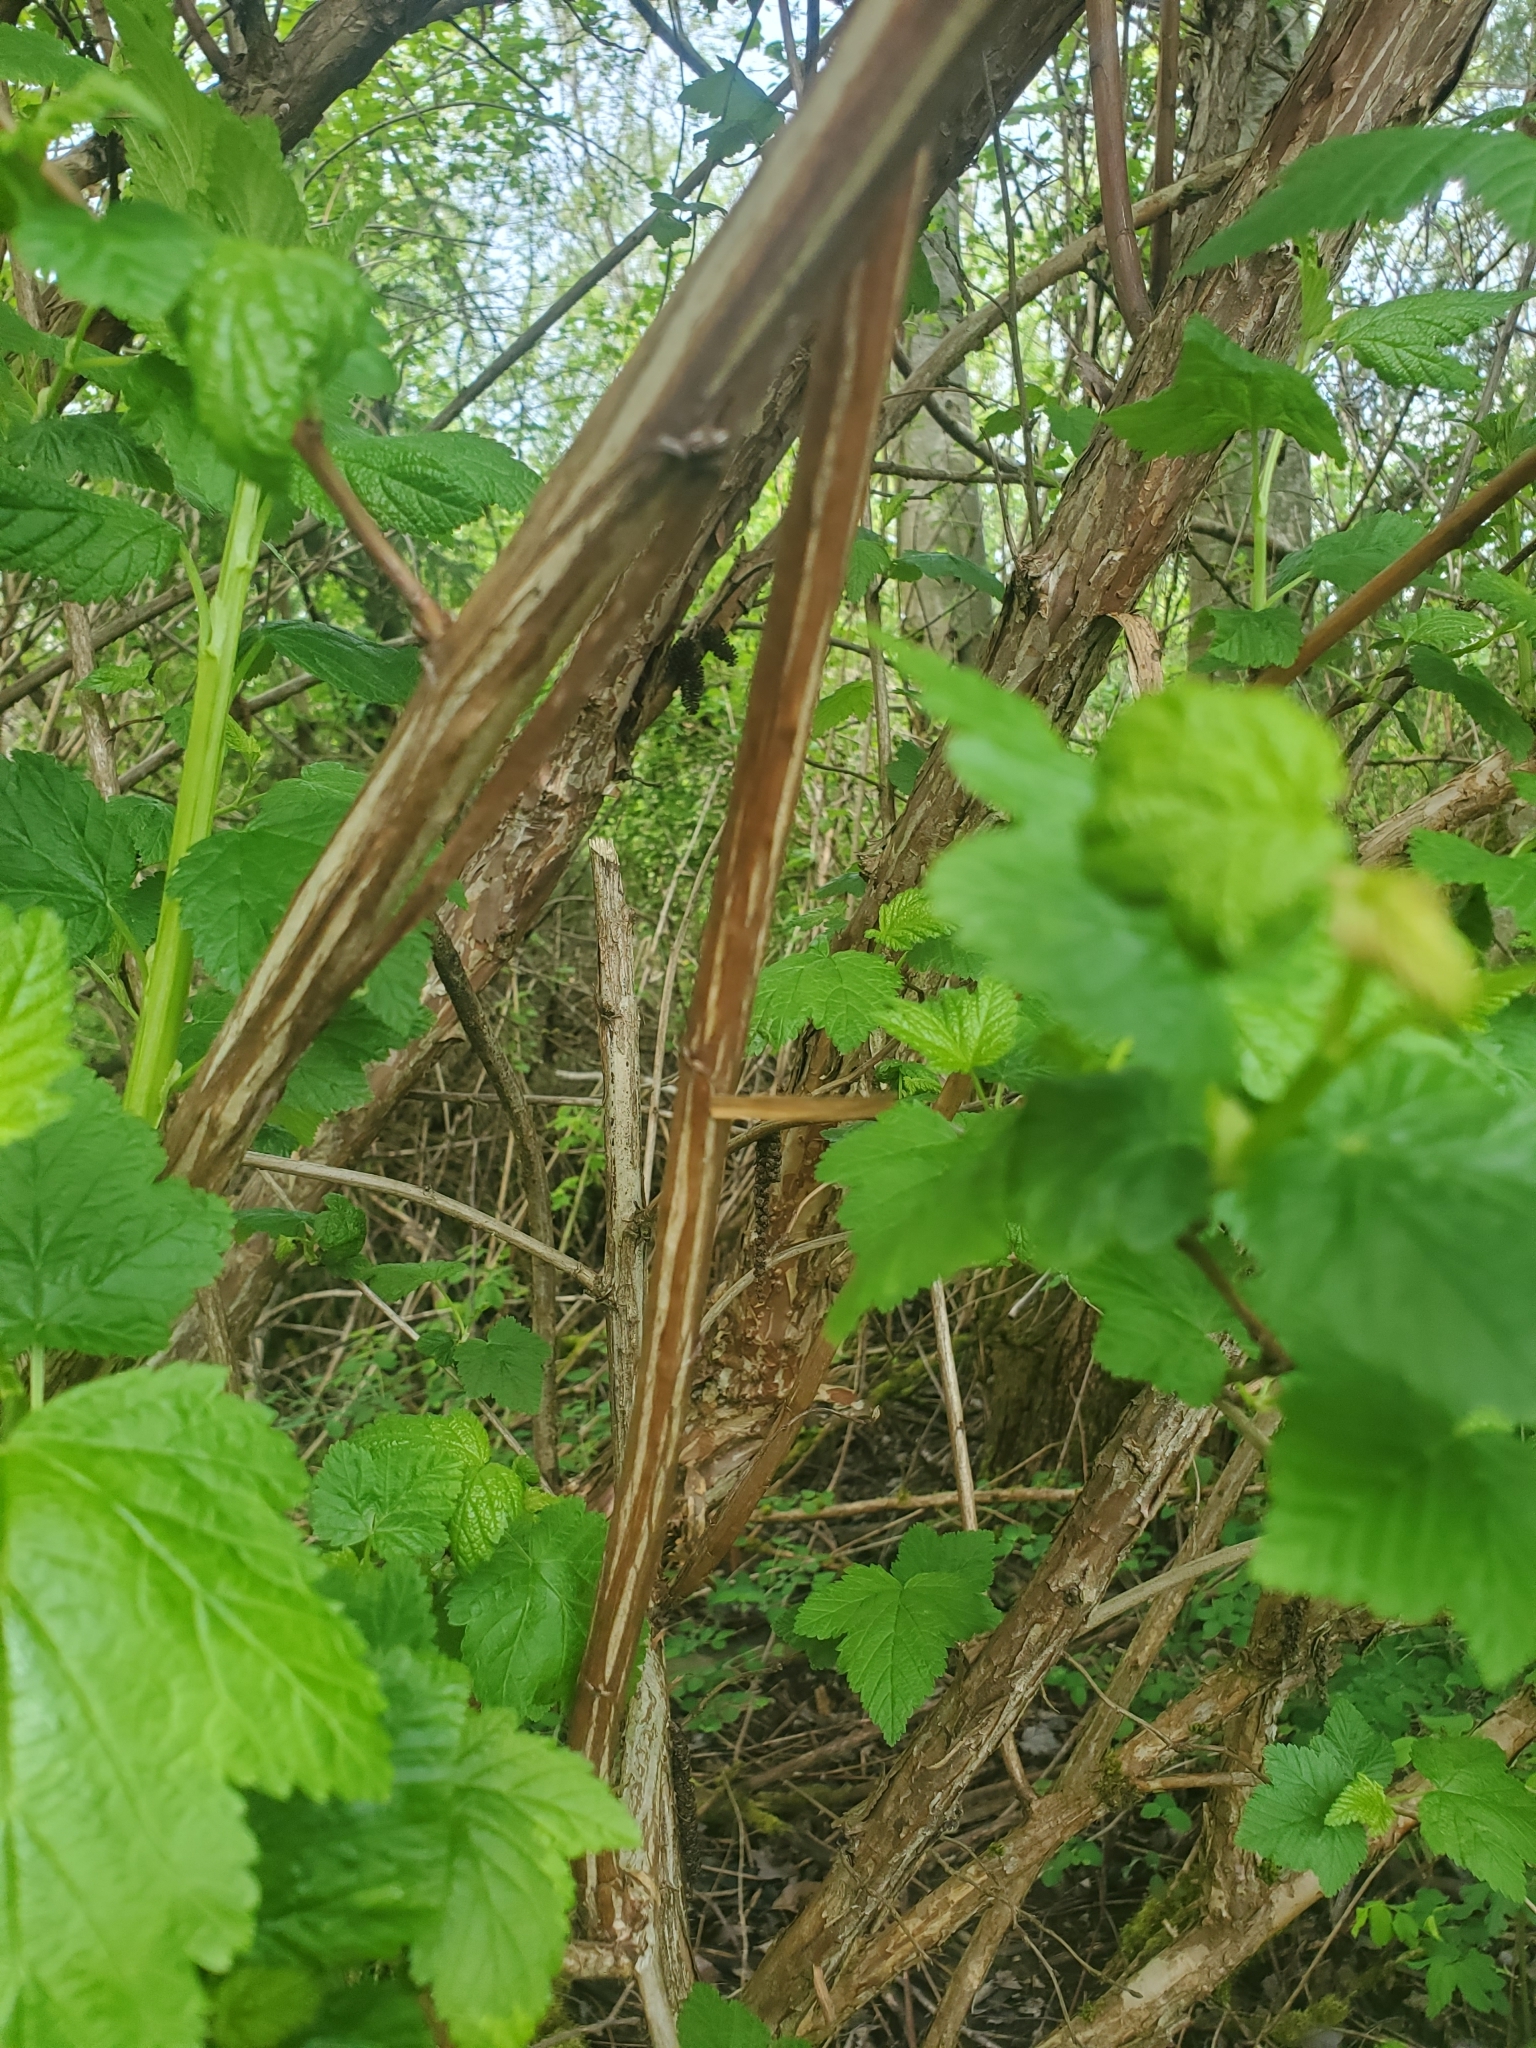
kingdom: Plantae
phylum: Tracheophyta
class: Magnoliopsida
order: Rosales
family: Rosaceae
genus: Physocarpus
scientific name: Physocarpus capitatus
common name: Pacific ninebark
